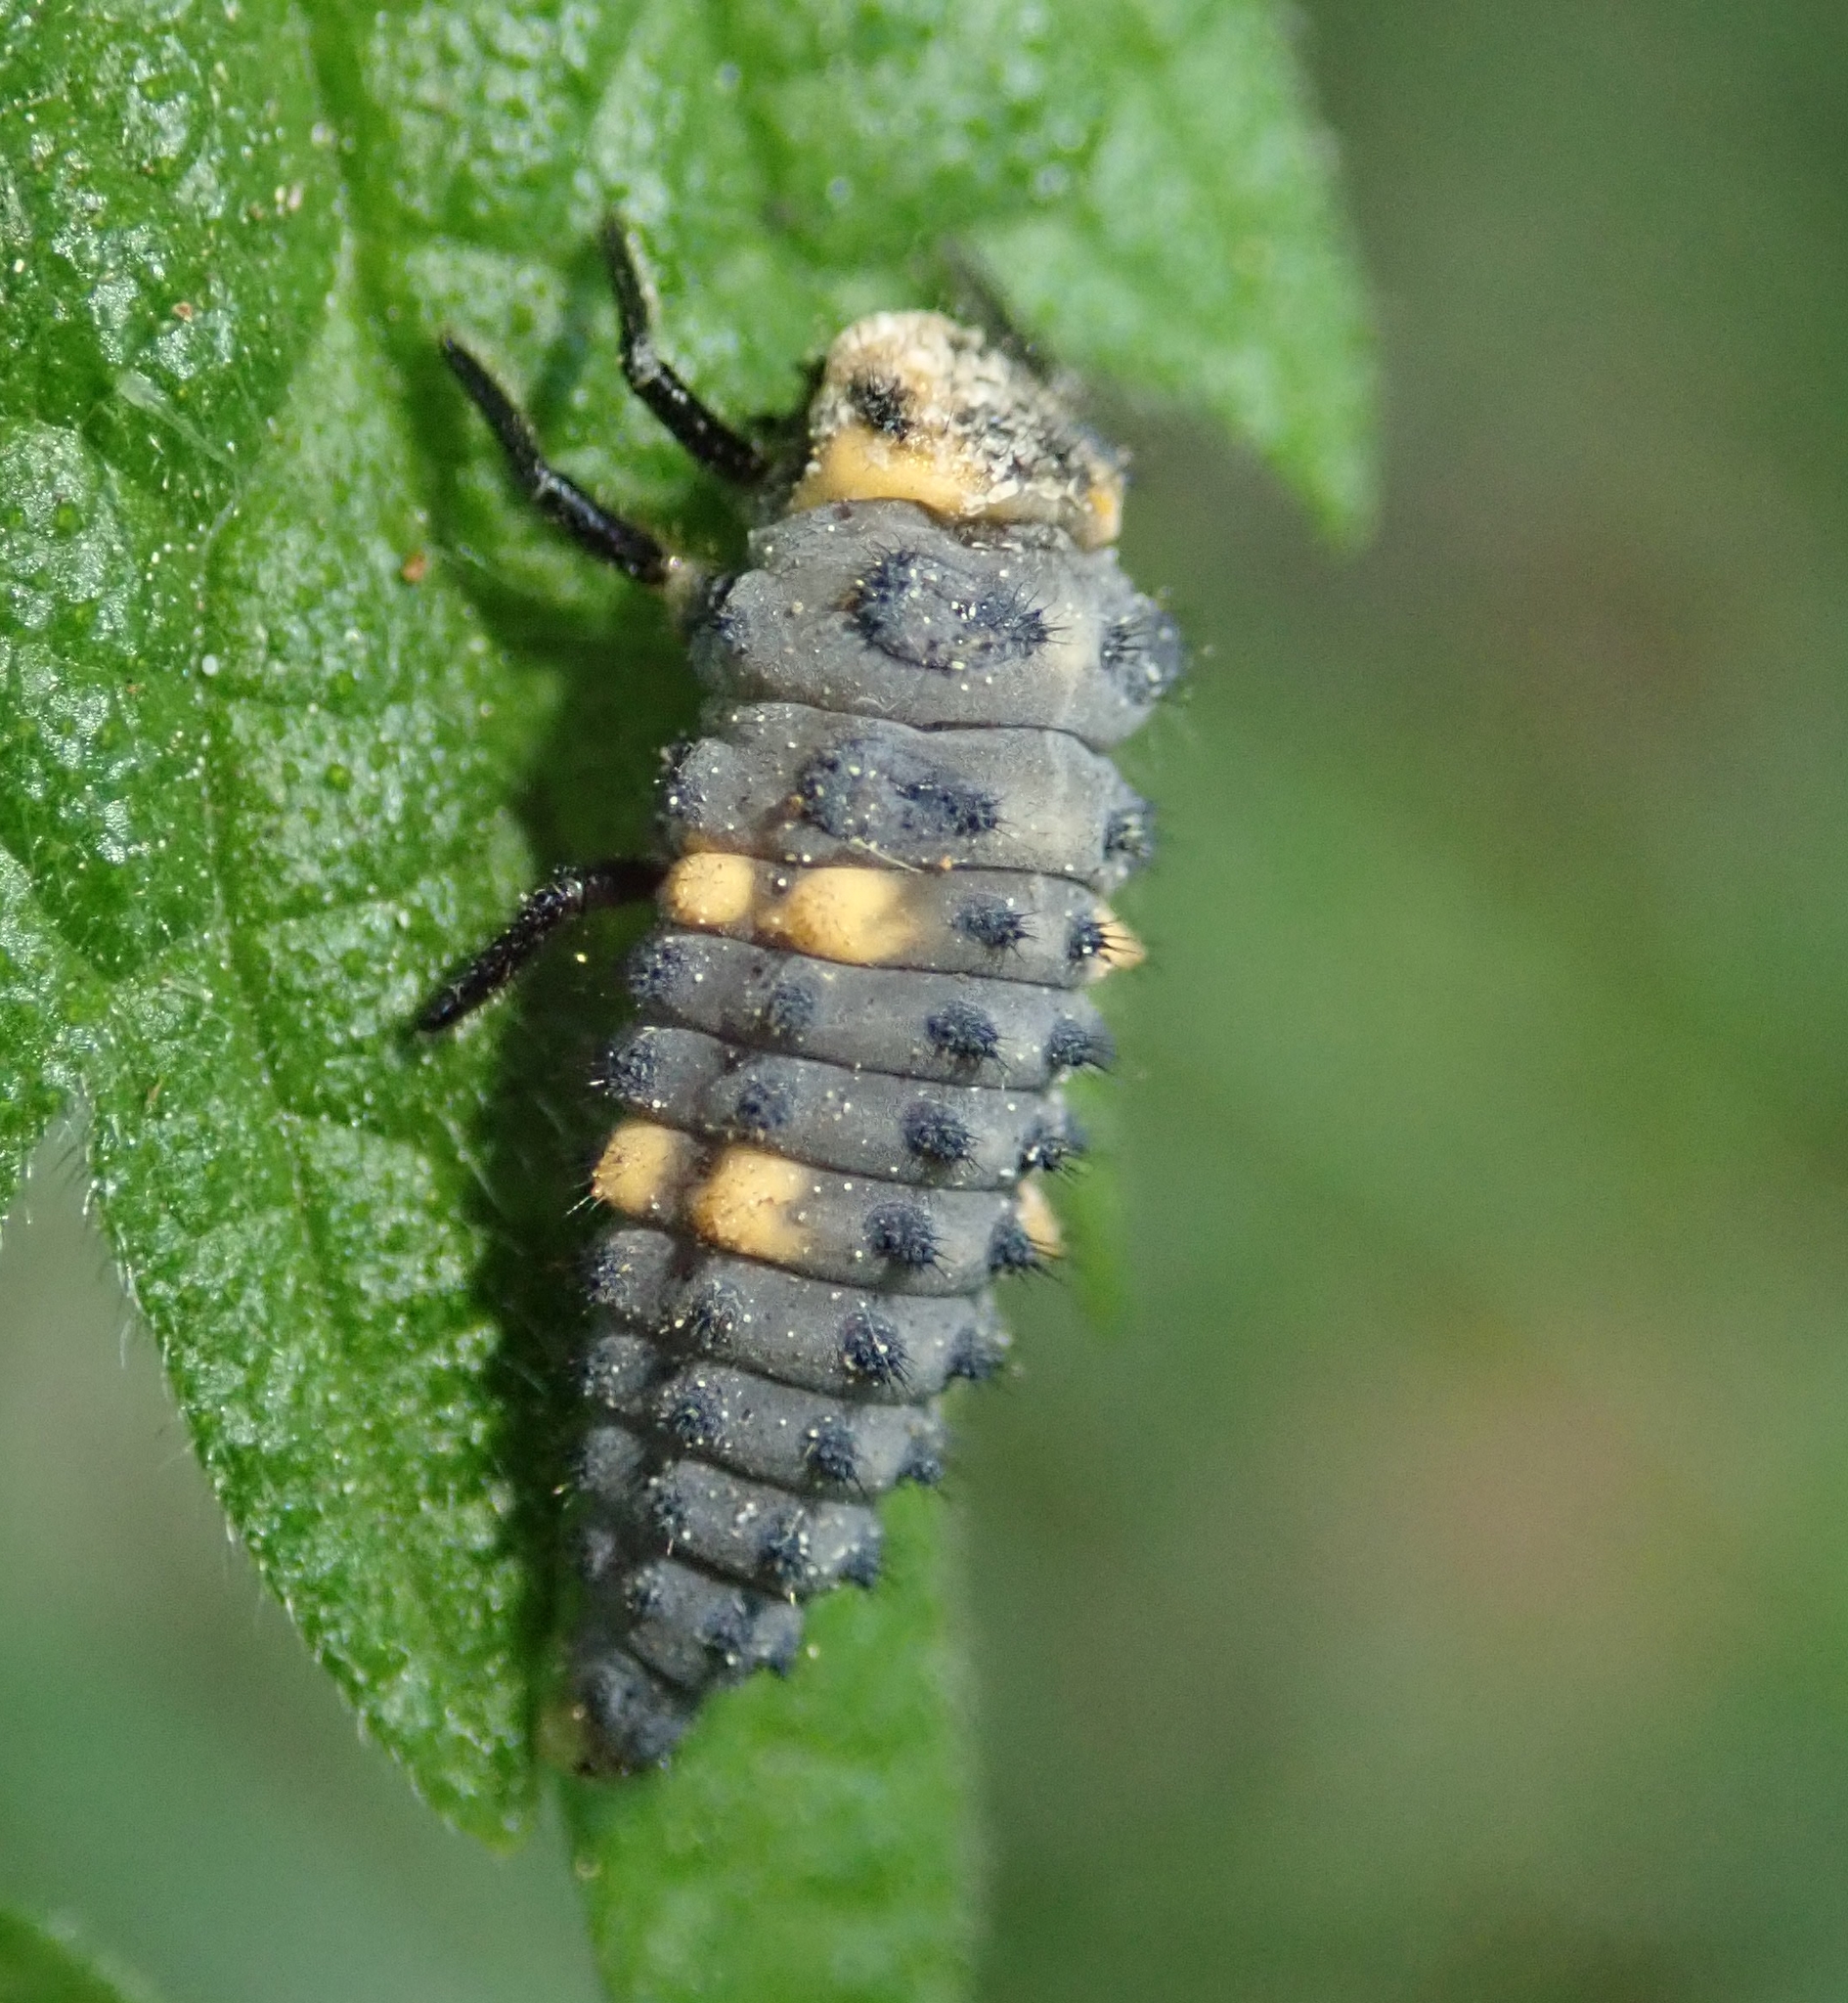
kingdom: Animalia
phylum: Arthropoda
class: Insecta
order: Coleoptera
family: Coccinellidae
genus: Coccinella
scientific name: Coccinella septempunctata
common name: Sevenspotted lady beetle
